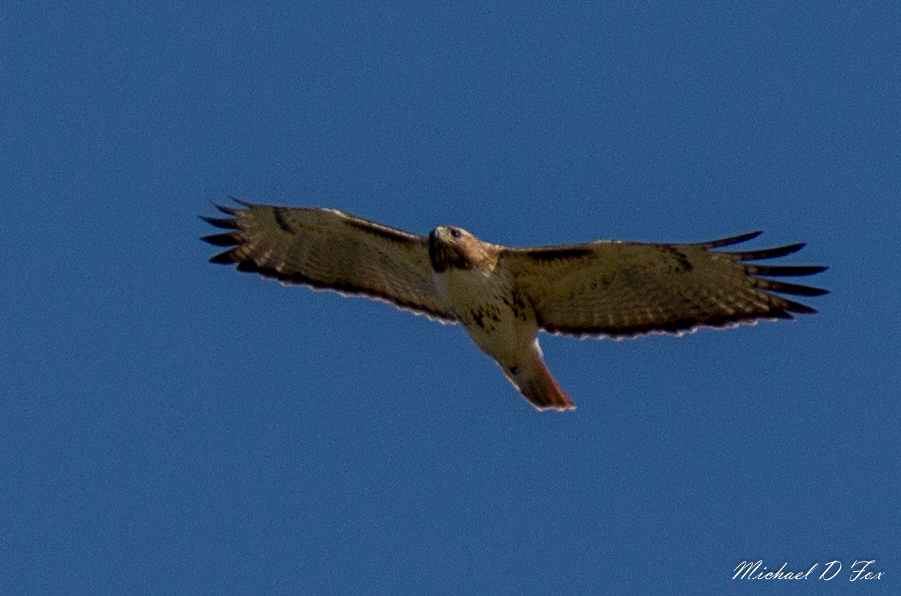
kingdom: Animalia
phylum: Chordata
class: Aves
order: Accipitriformes
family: Accipitridae
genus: Buteo
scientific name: Buteo jamaicensis
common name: Red-tailed hawk
